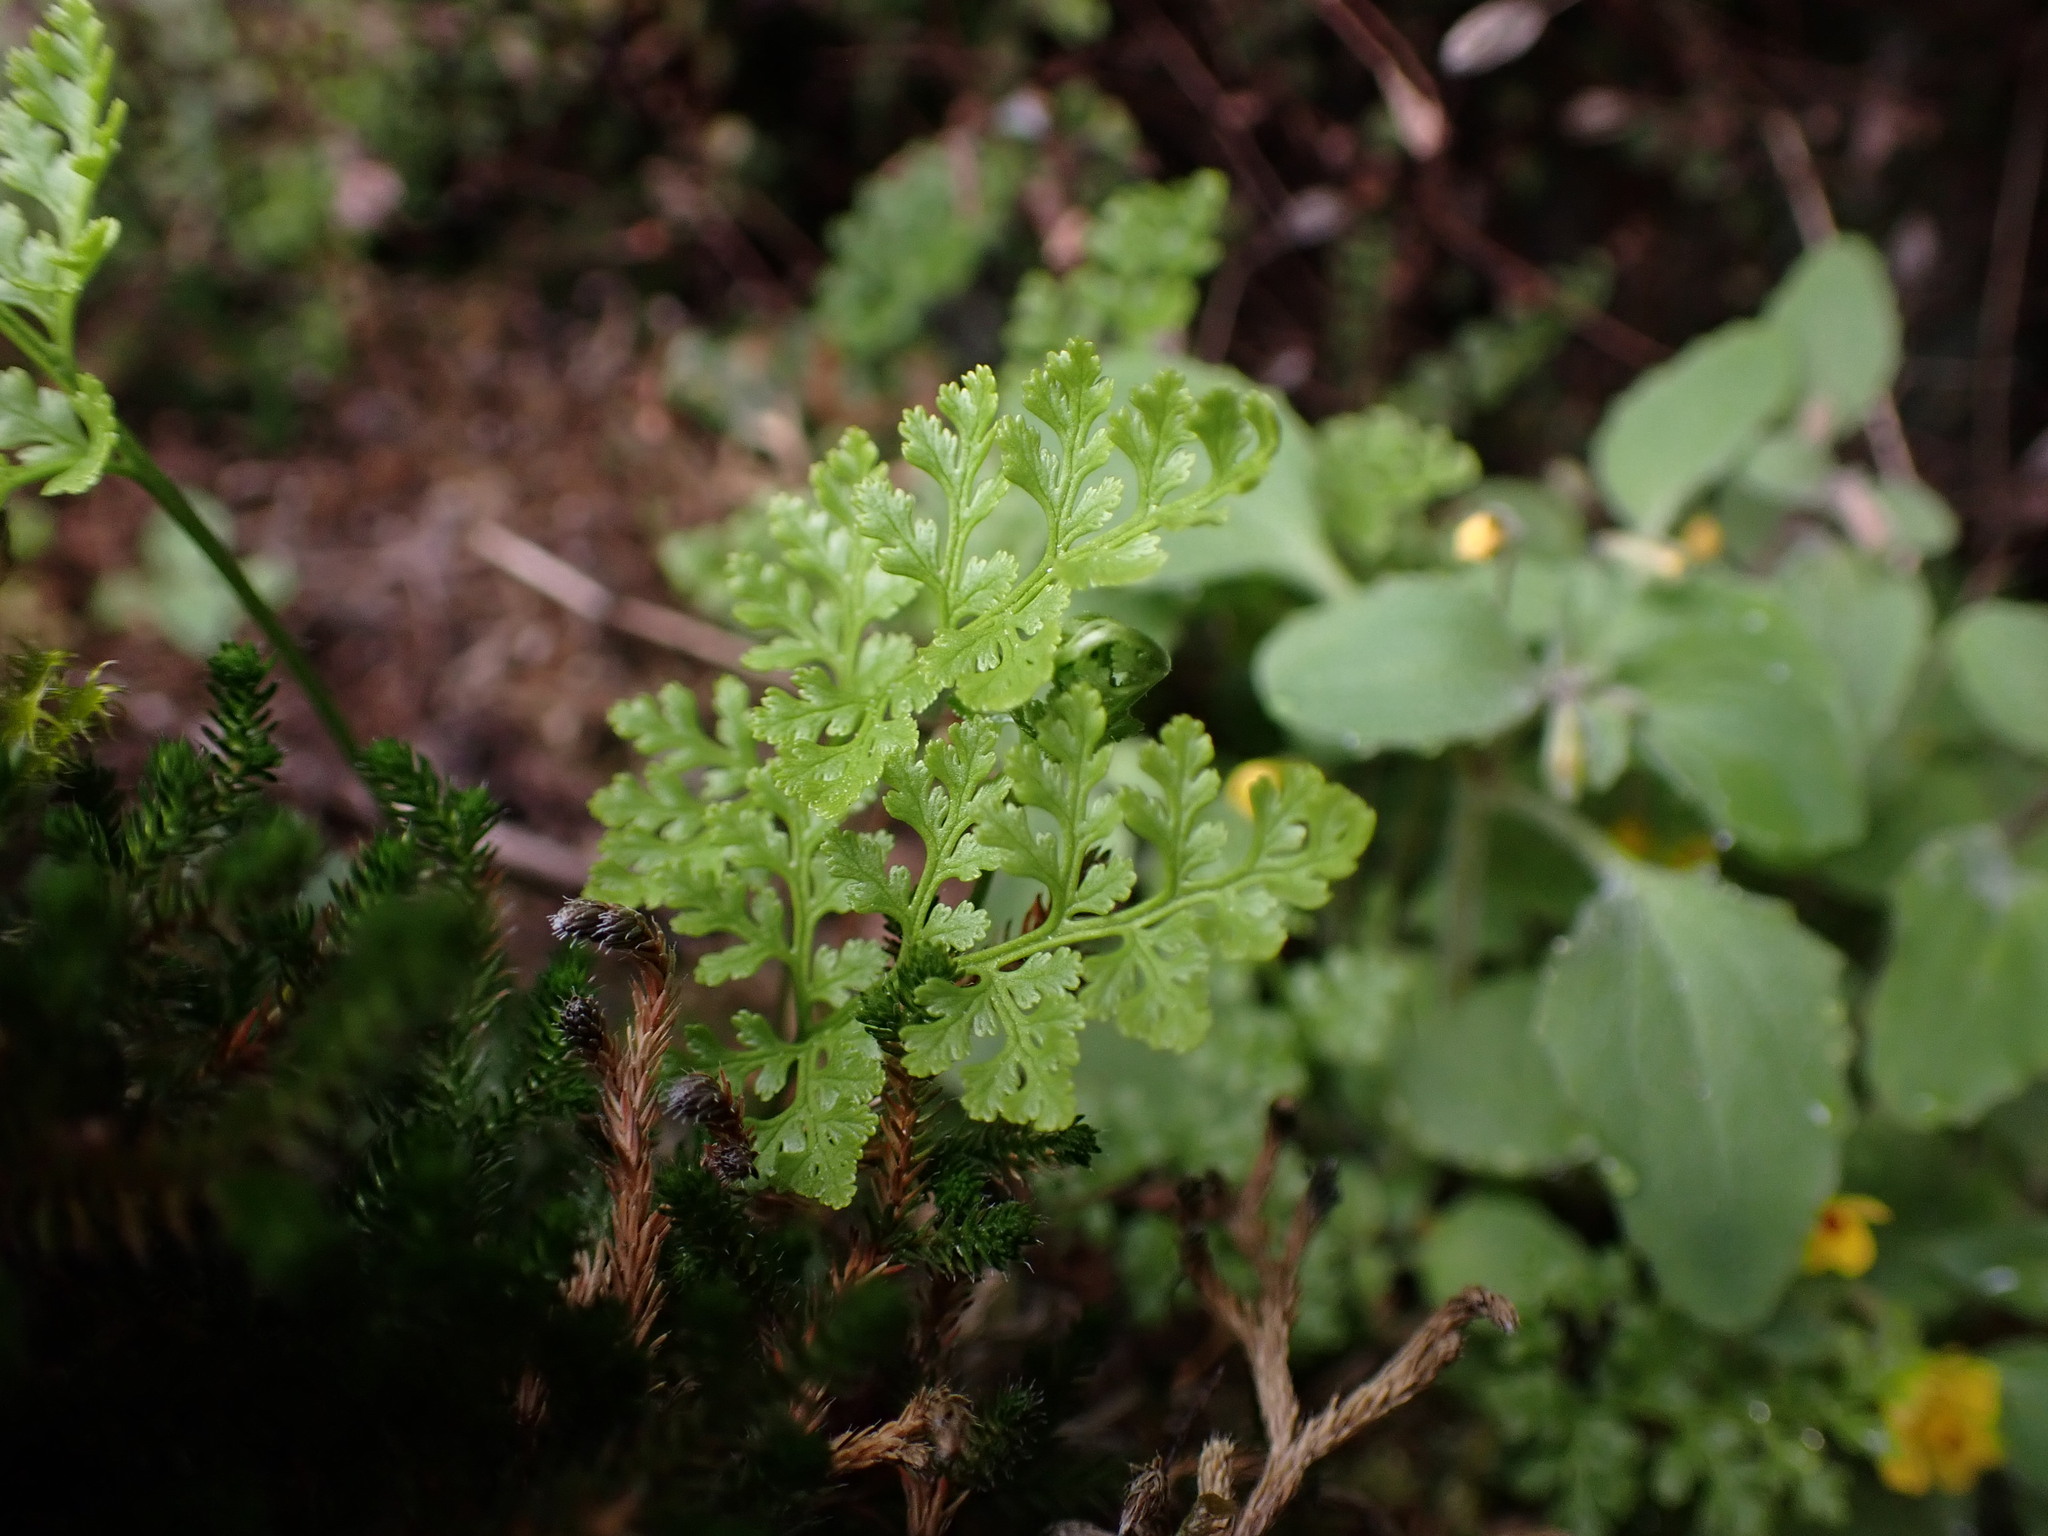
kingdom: Plantae
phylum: Tracheophyta
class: Polypodiopsida
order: Polypodiales
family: Pteridaceae
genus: Cryptogramma
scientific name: Cryptogramma acrostichoides
